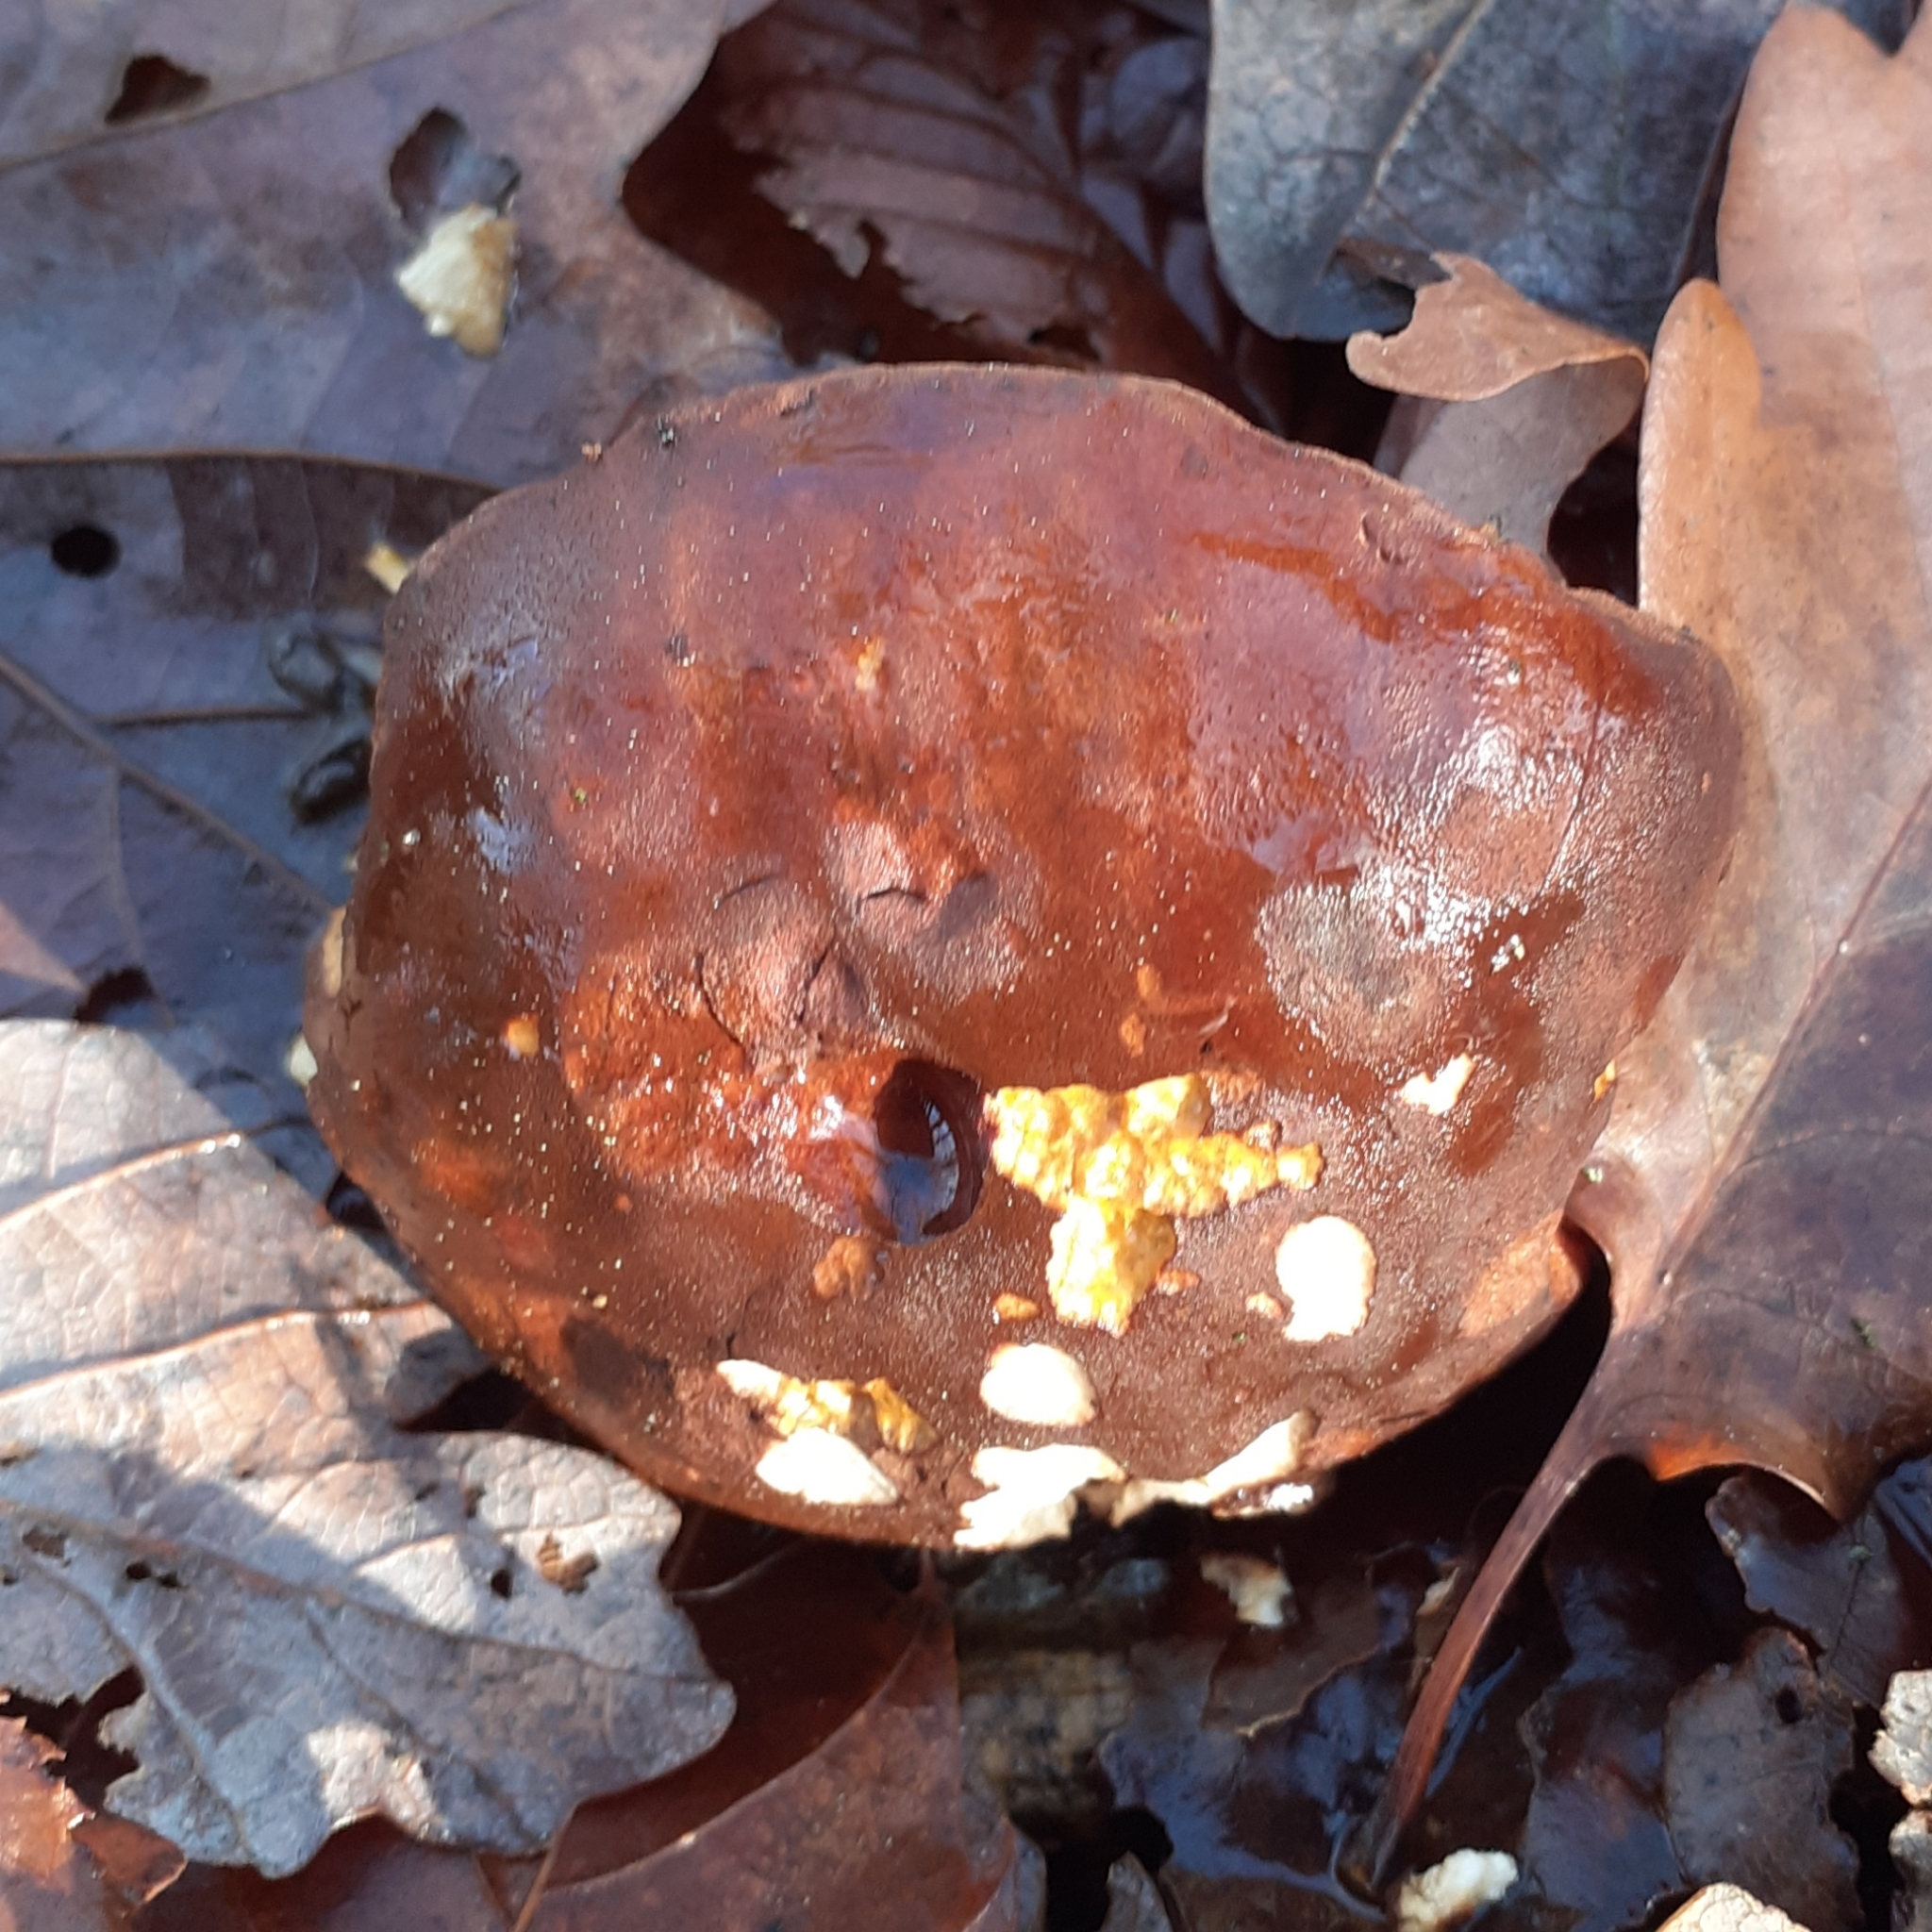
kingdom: Fungi
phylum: Basidiomycota
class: Agaricomycetes
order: Boletales
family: Boletaceae
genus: Imleria
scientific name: Imleria badia
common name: Bay bolete
